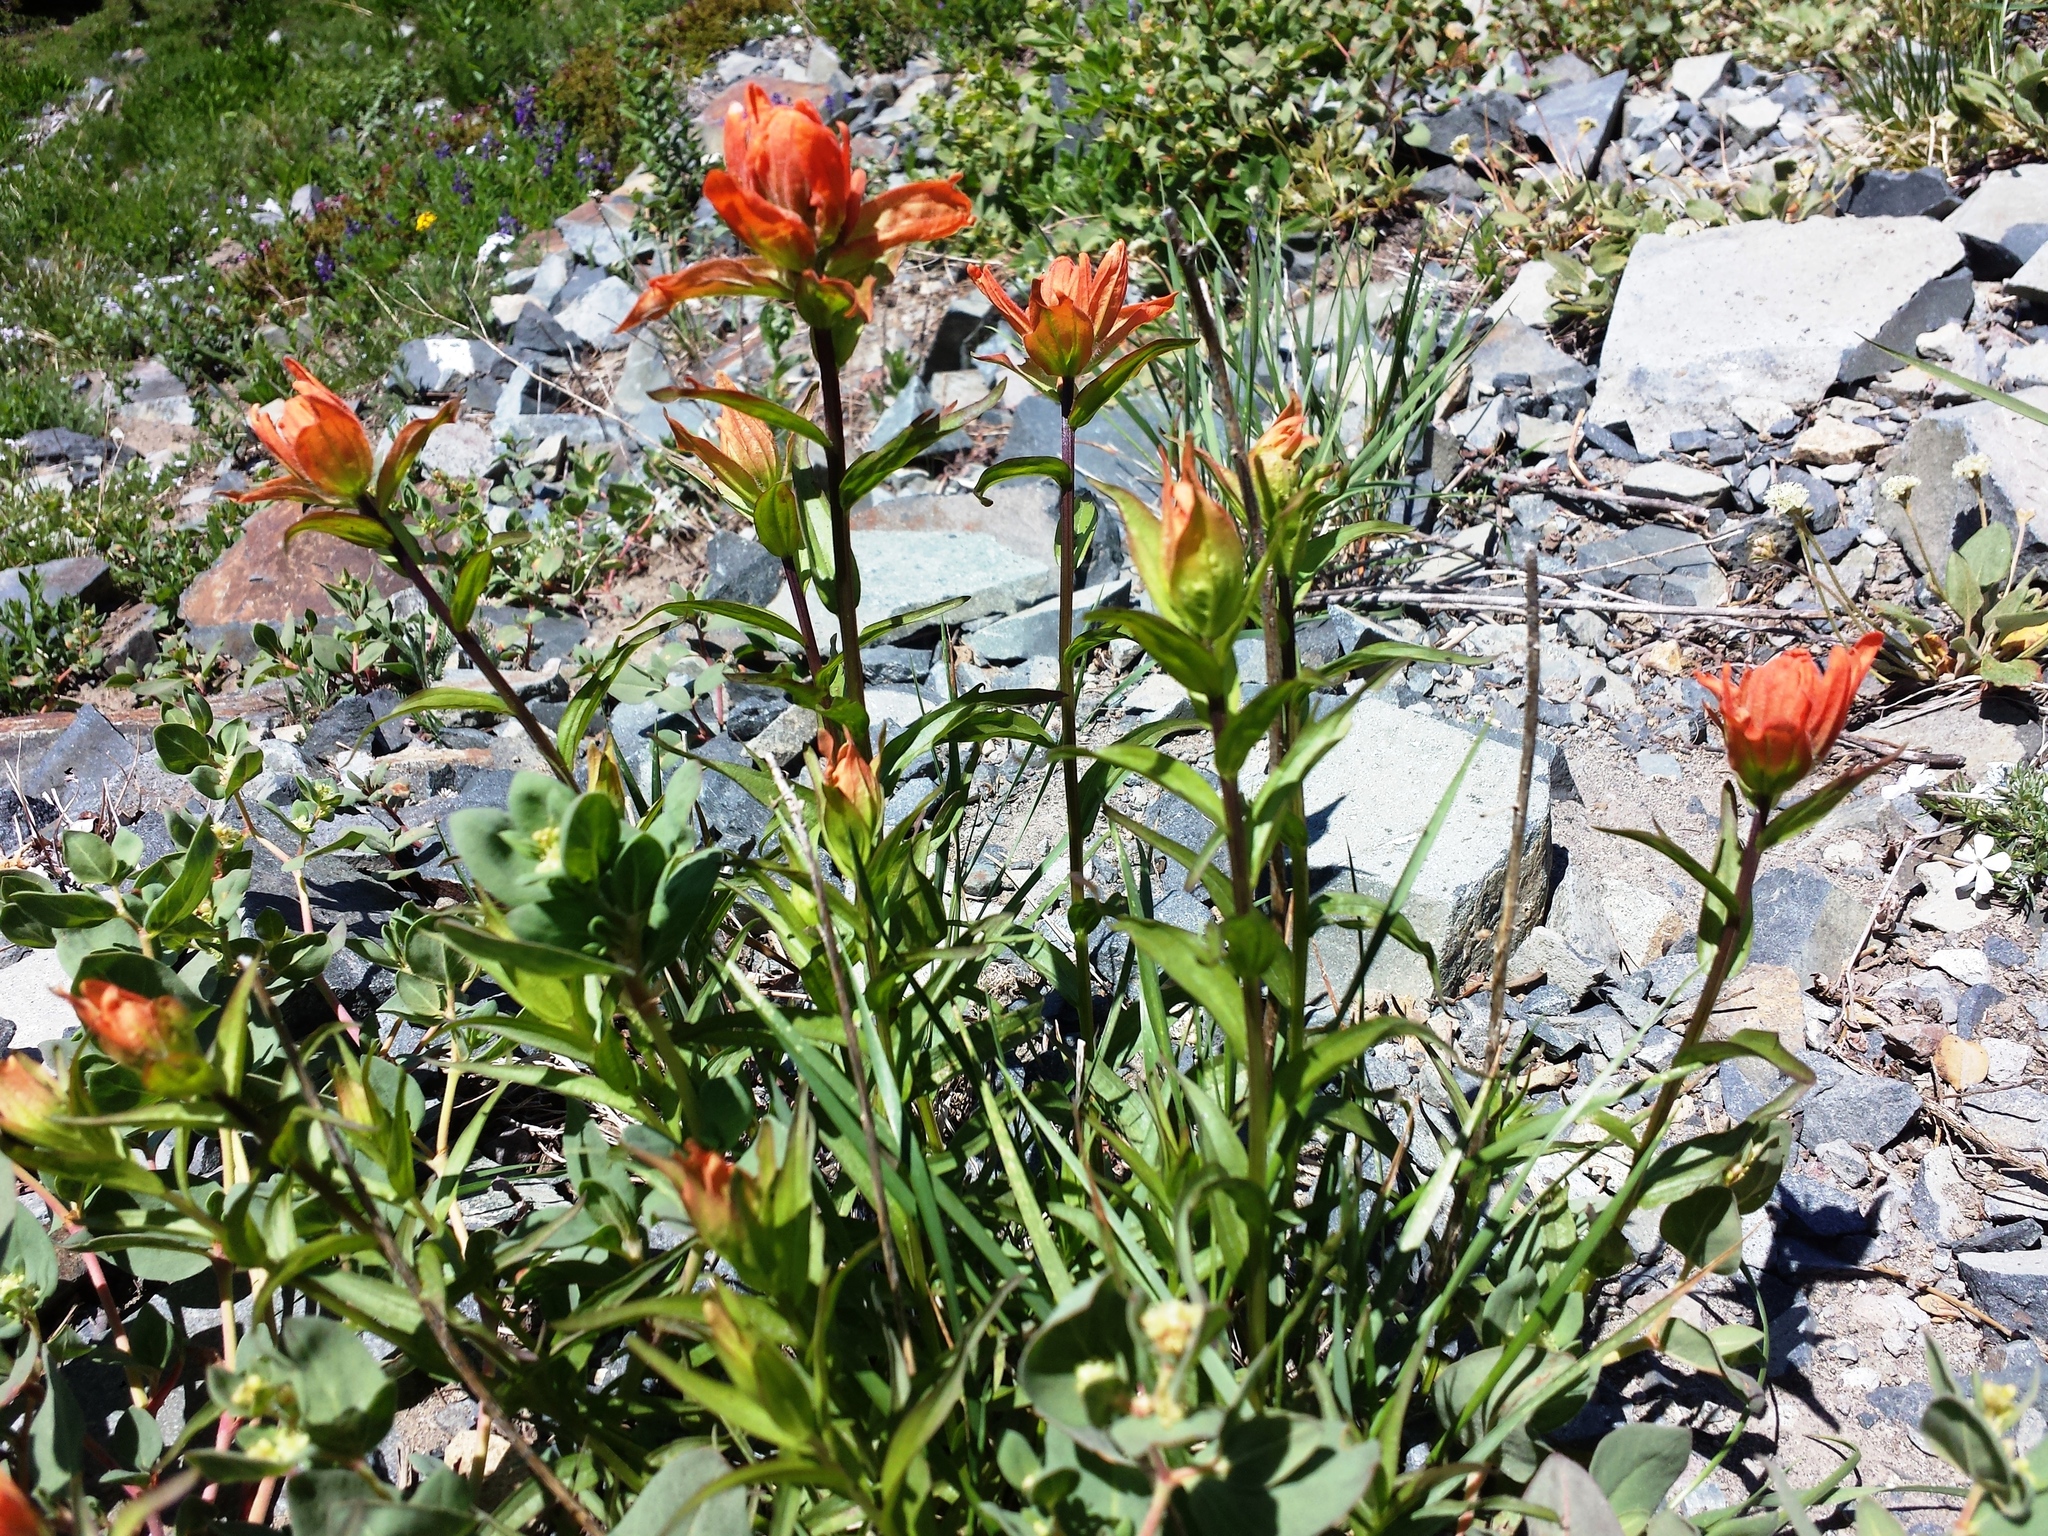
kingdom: Plantae
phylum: Tracheophyta
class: Magnoliopsida
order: Lamiales
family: Orobanchaceae
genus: Castilleja
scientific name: Castilleja miniata
